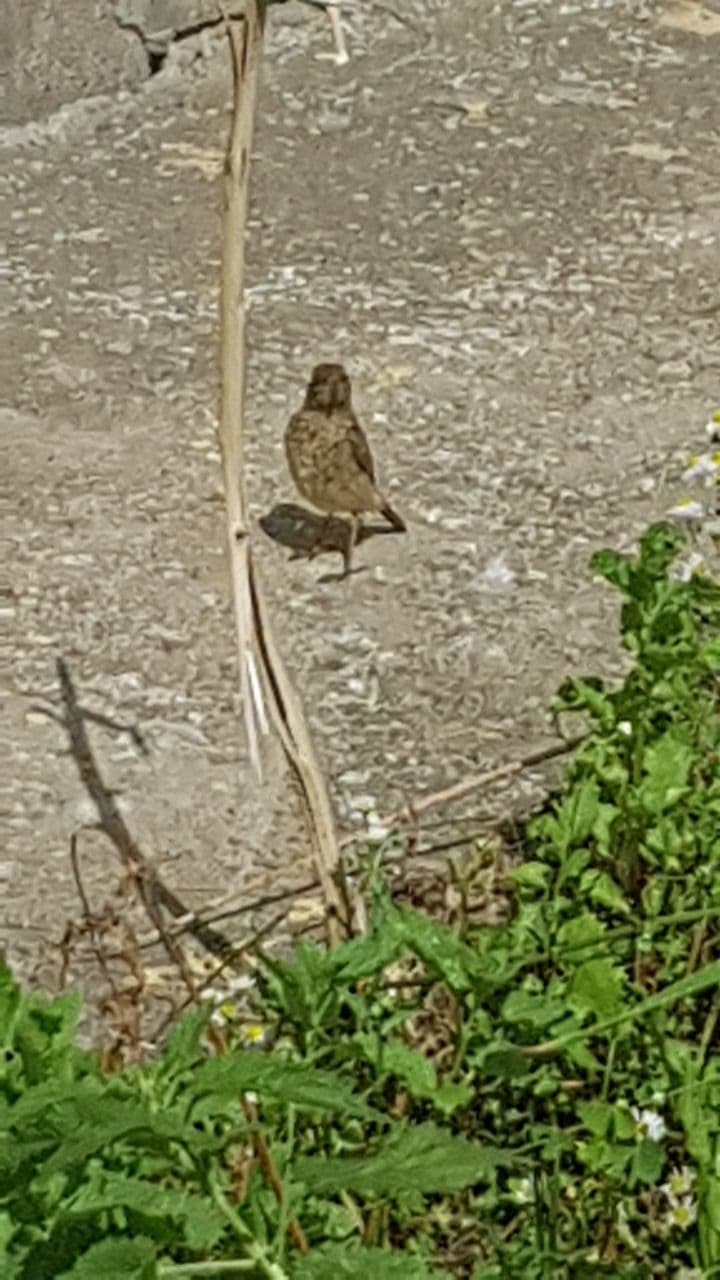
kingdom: Animalia
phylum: Chordata
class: Aves
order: Passeriformes
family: Muscicapidae
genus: Phoenicurus
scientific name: Phoenicurus phoenicurus
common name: Common redstart
